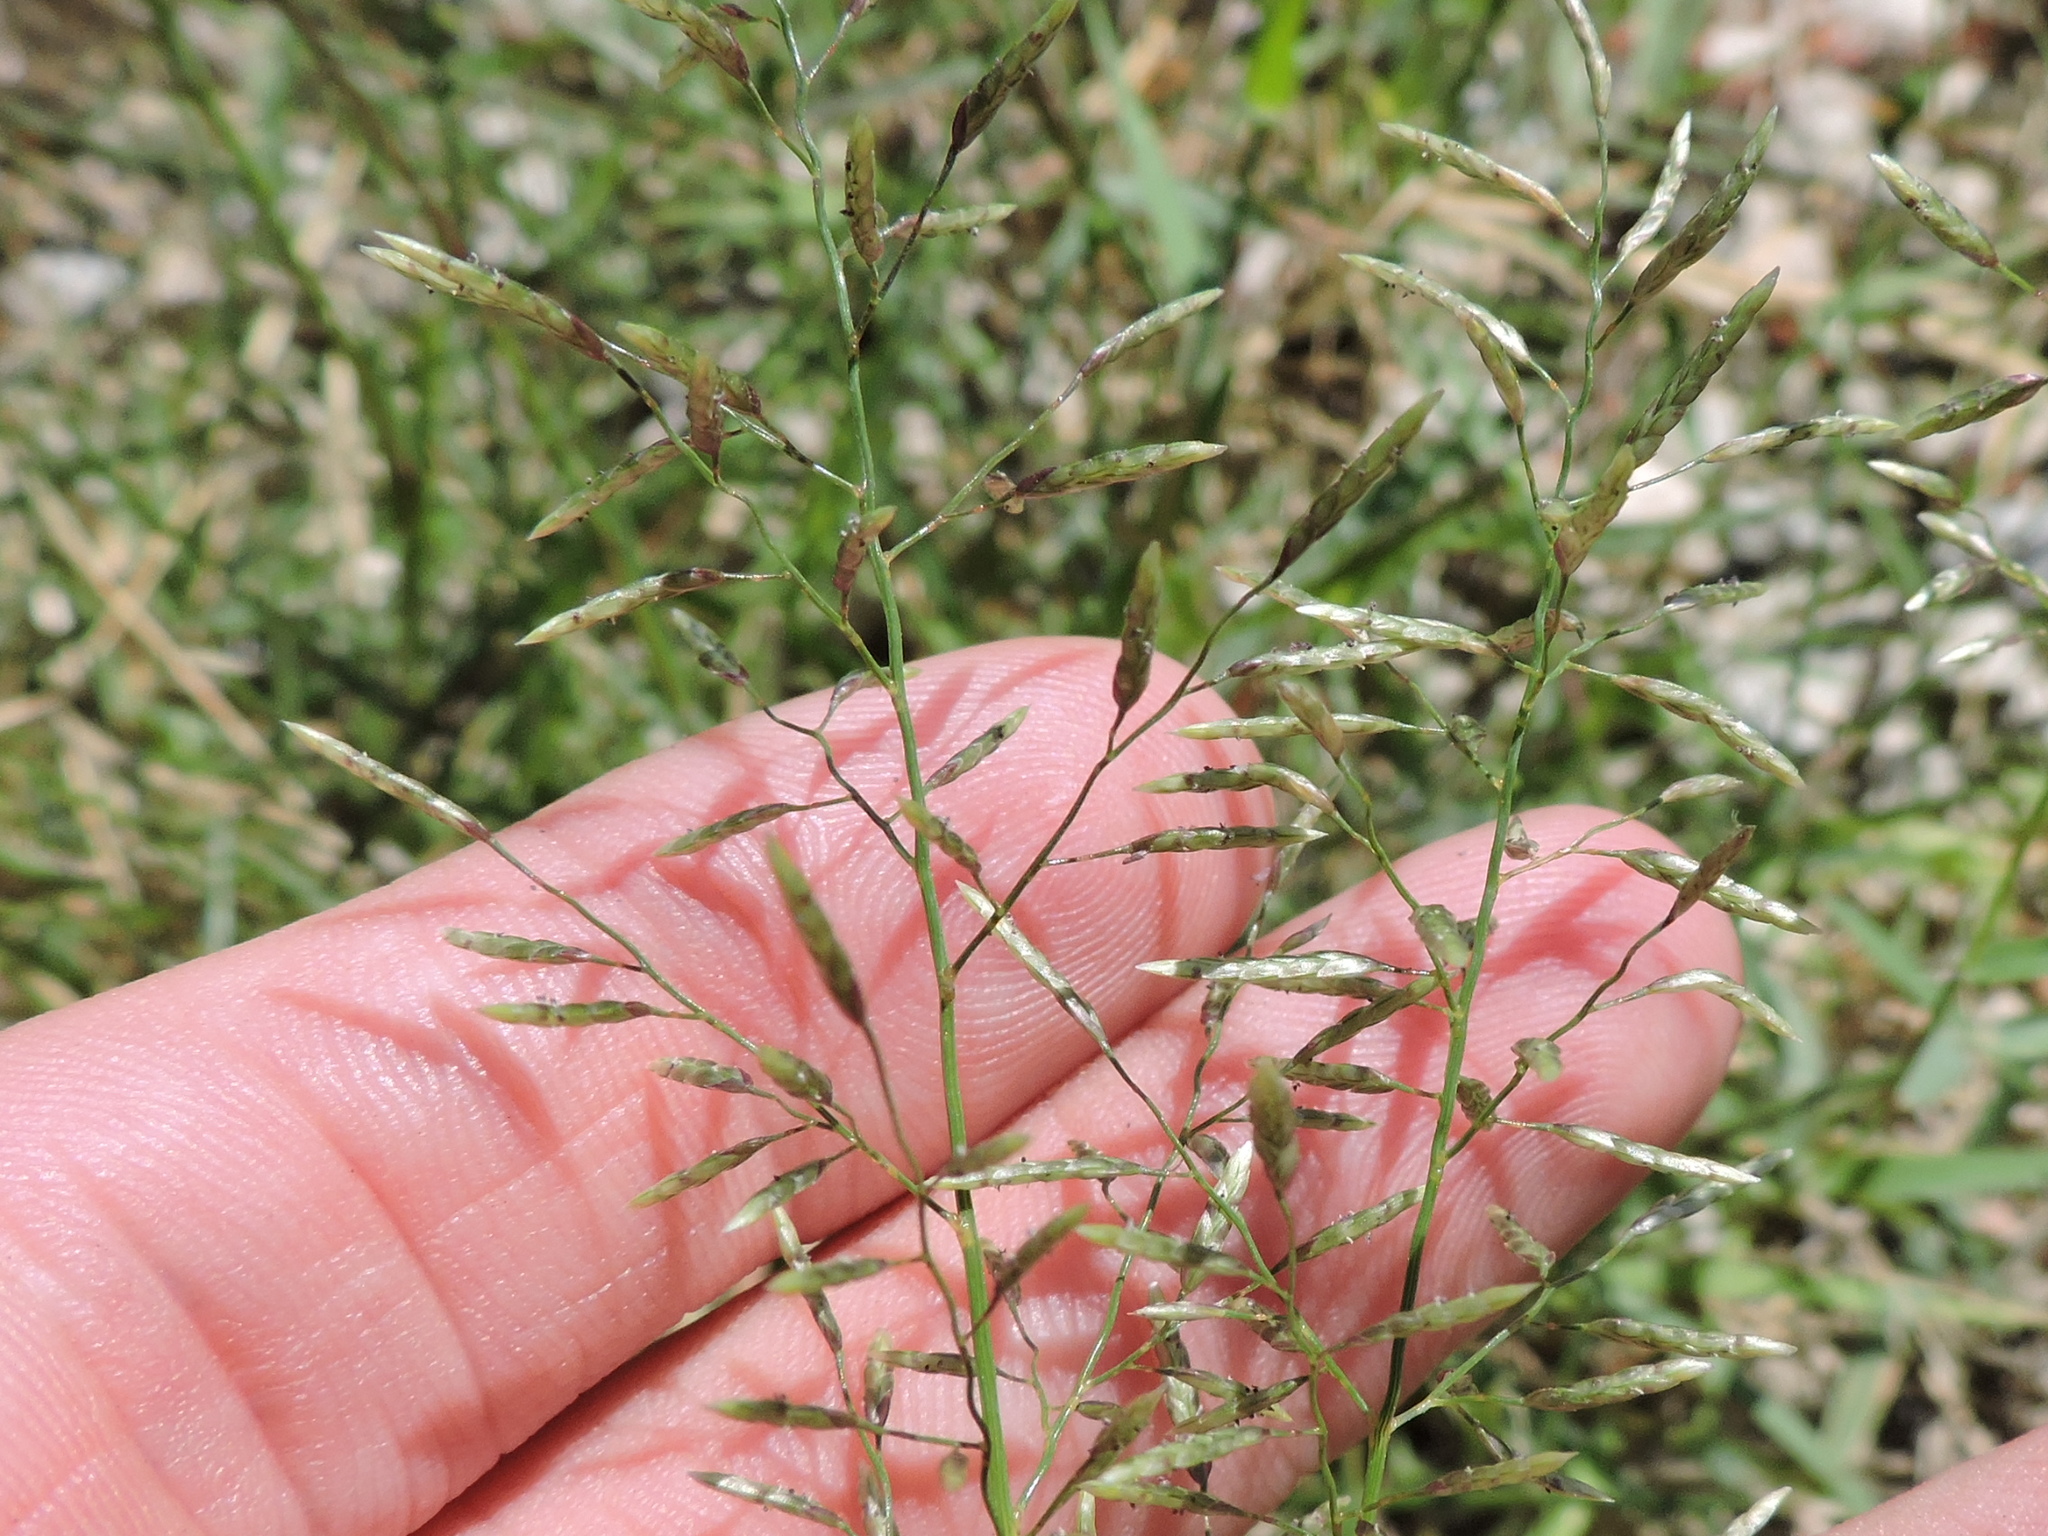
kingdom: Plantae
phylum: Tracheophyta
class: Liliopsida
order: Poales
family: Poaceae
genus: Eragrostis
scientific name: Eragrostis barrelieri
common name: Mediterranean lovegrass
